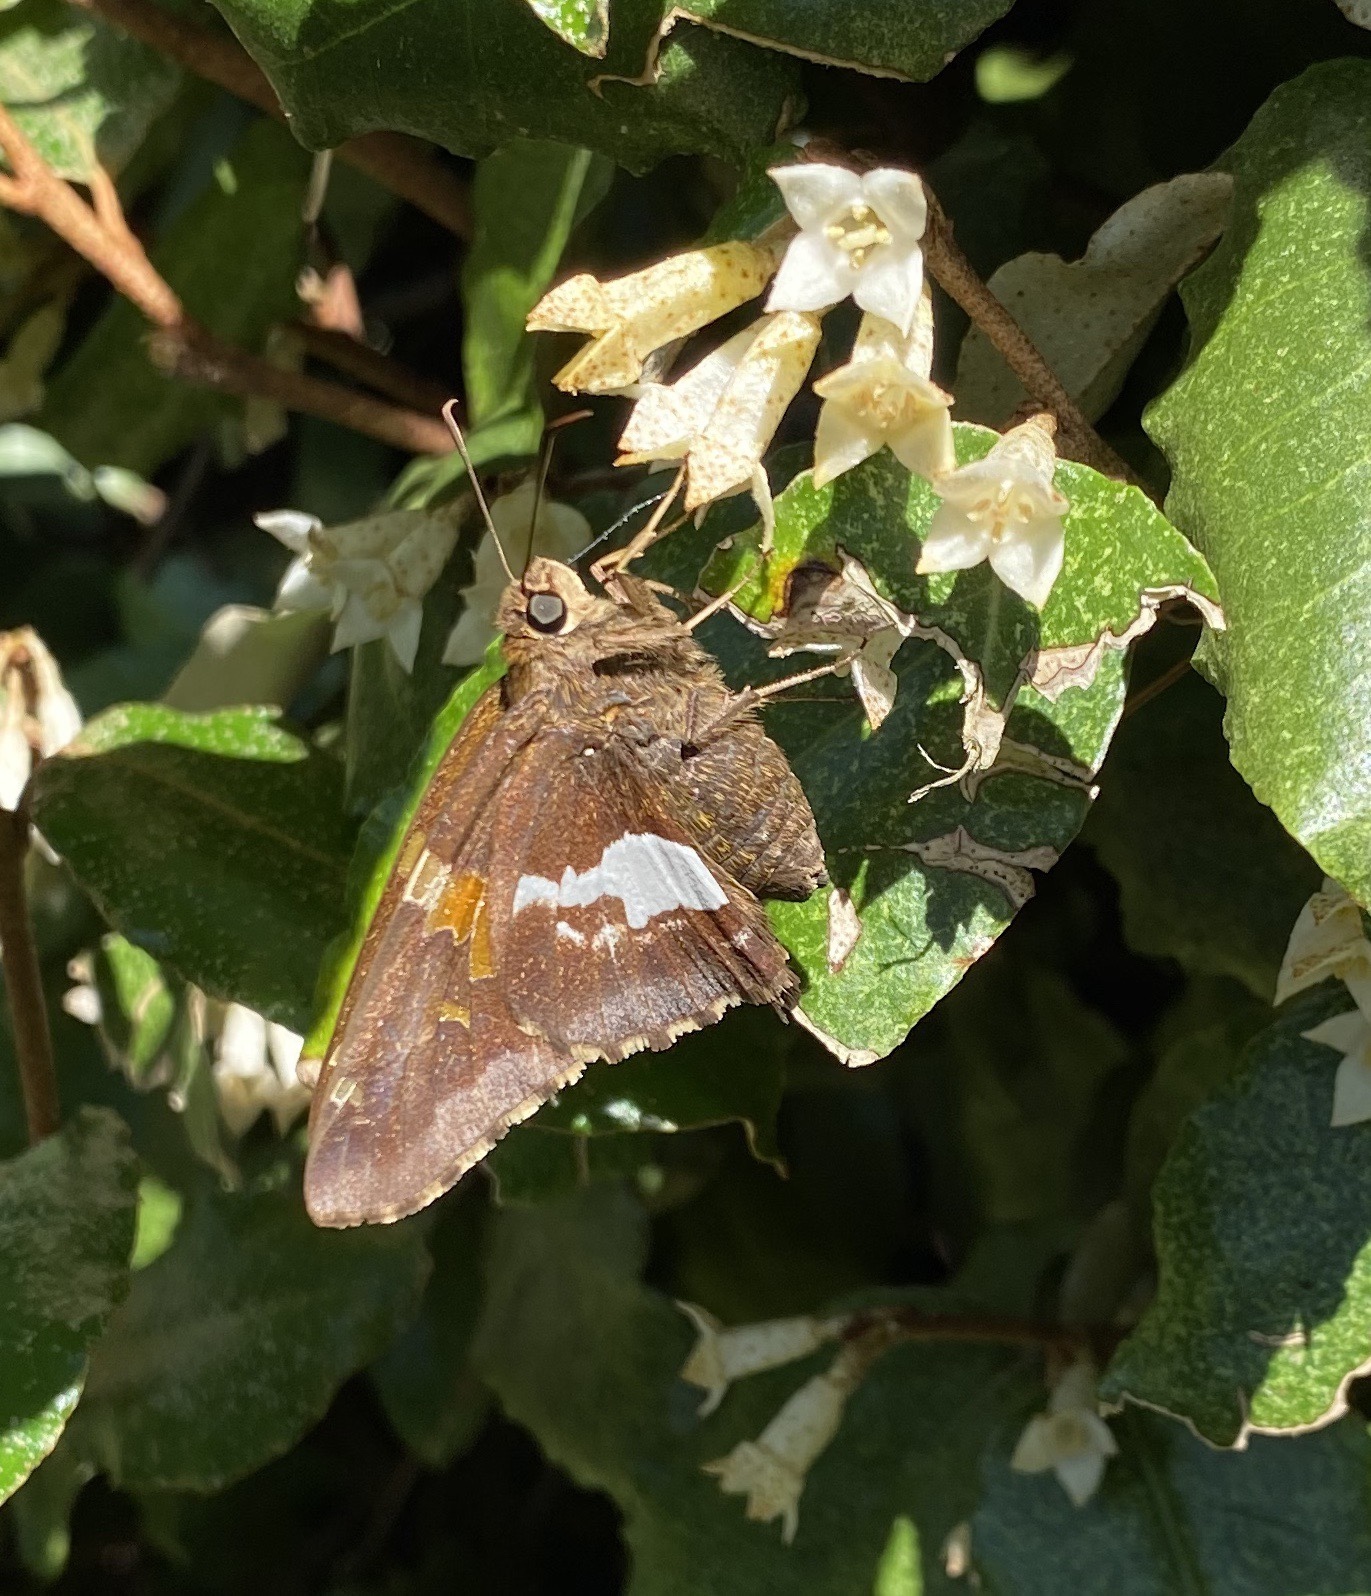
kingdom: Animalia
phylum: Arthropoda
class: Insecta
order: Lepidoptera
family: Hesperiidae
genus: Epargyreus
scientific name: Epargyreus clarus
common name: Silver-spotted skipper
